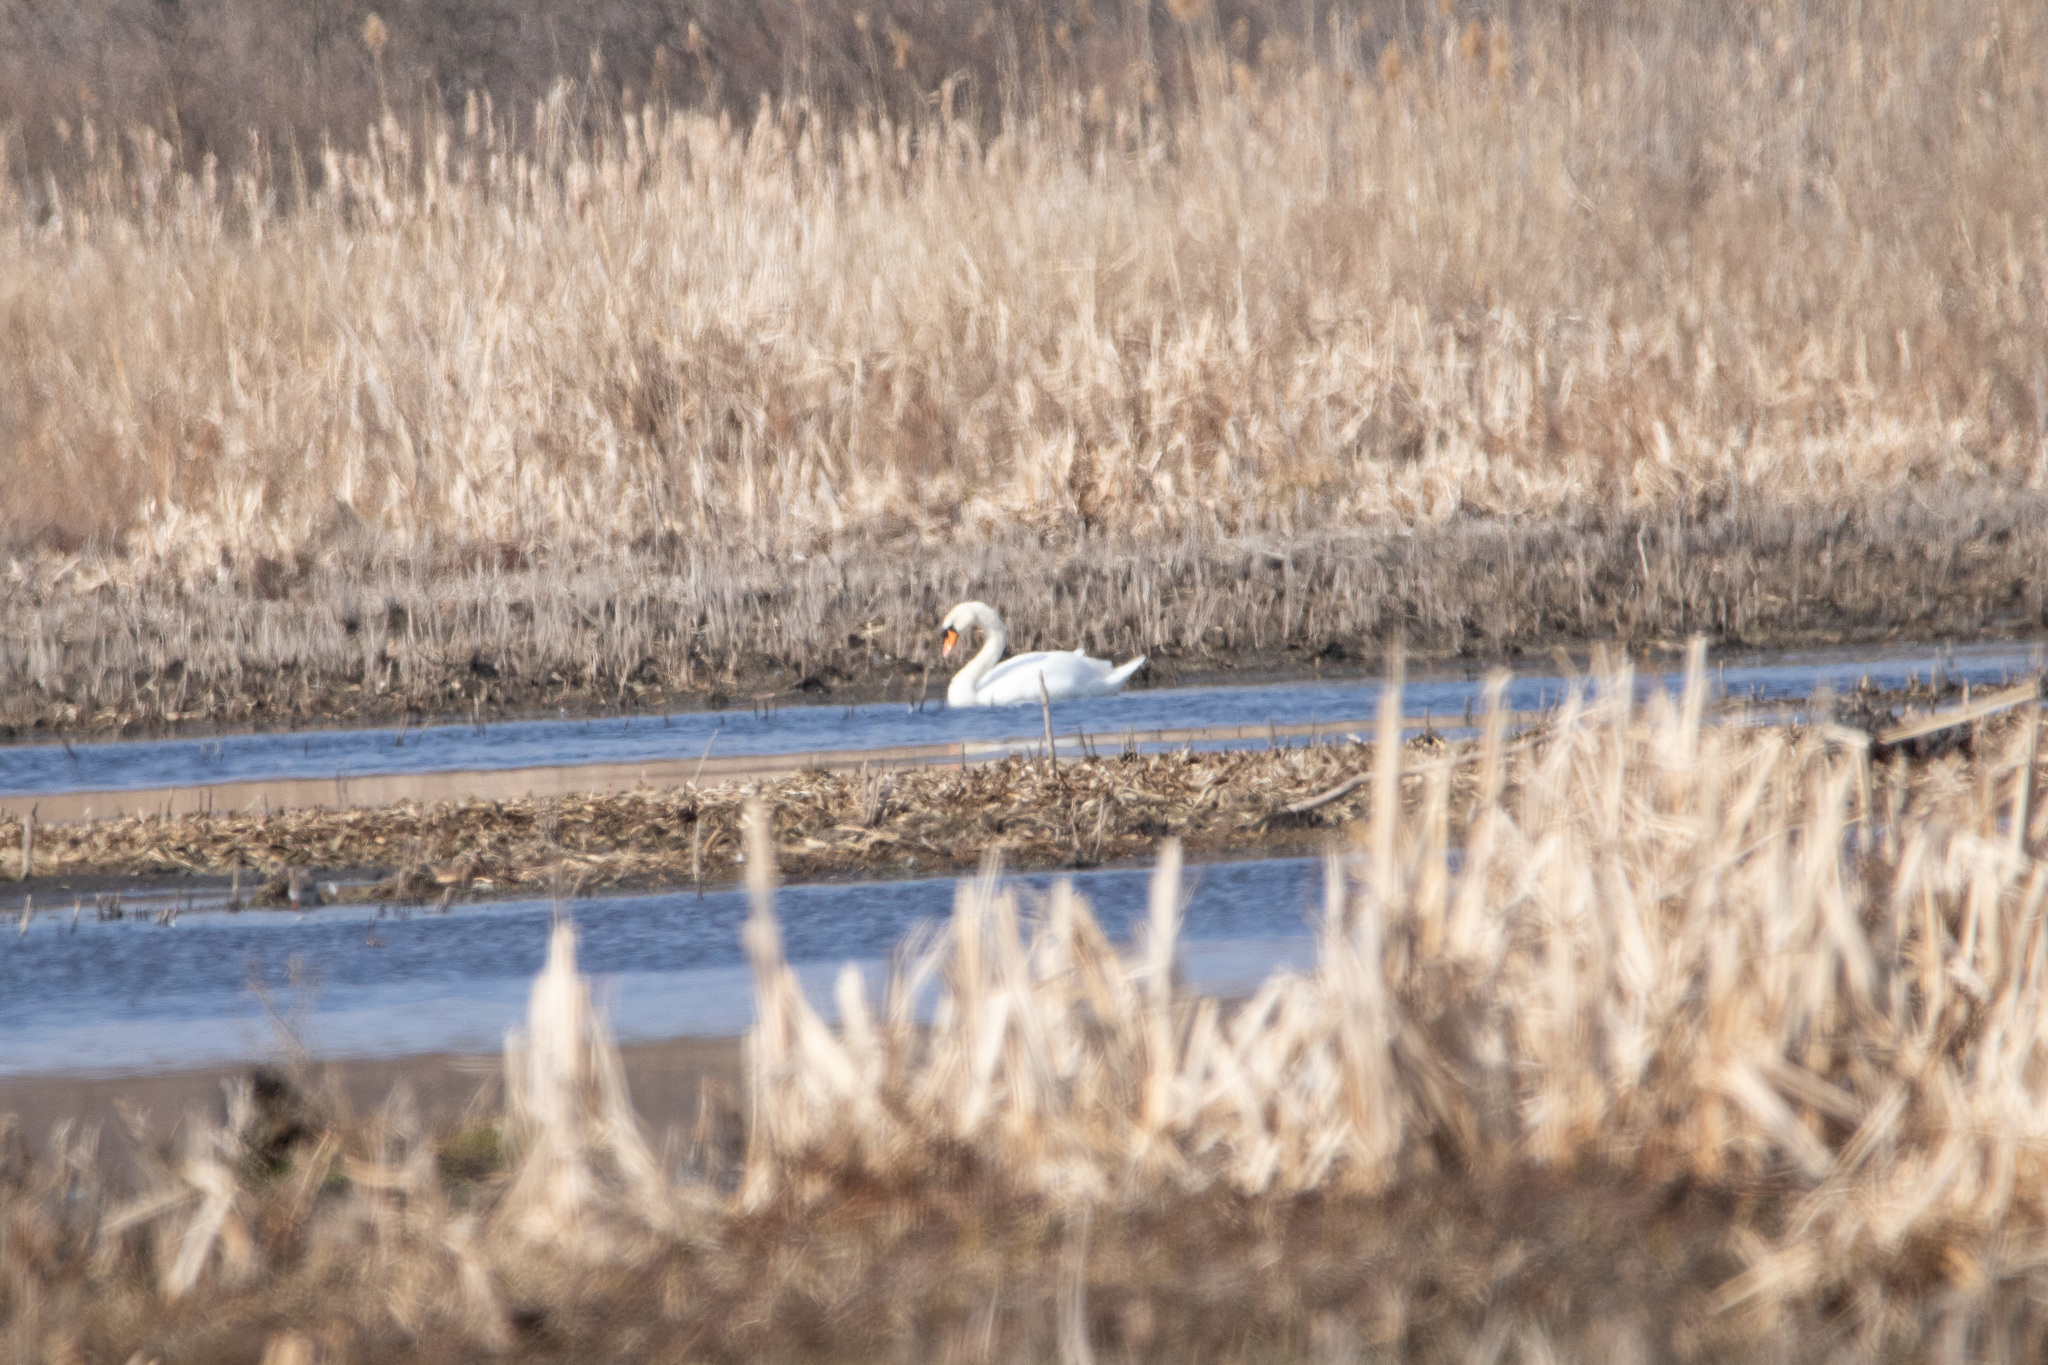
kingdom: Animalia
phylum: Chordata
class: Aves
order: Anseriformes
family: Anatidae
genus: Cygnus
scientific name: Cygnus olor
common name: Mute swan
